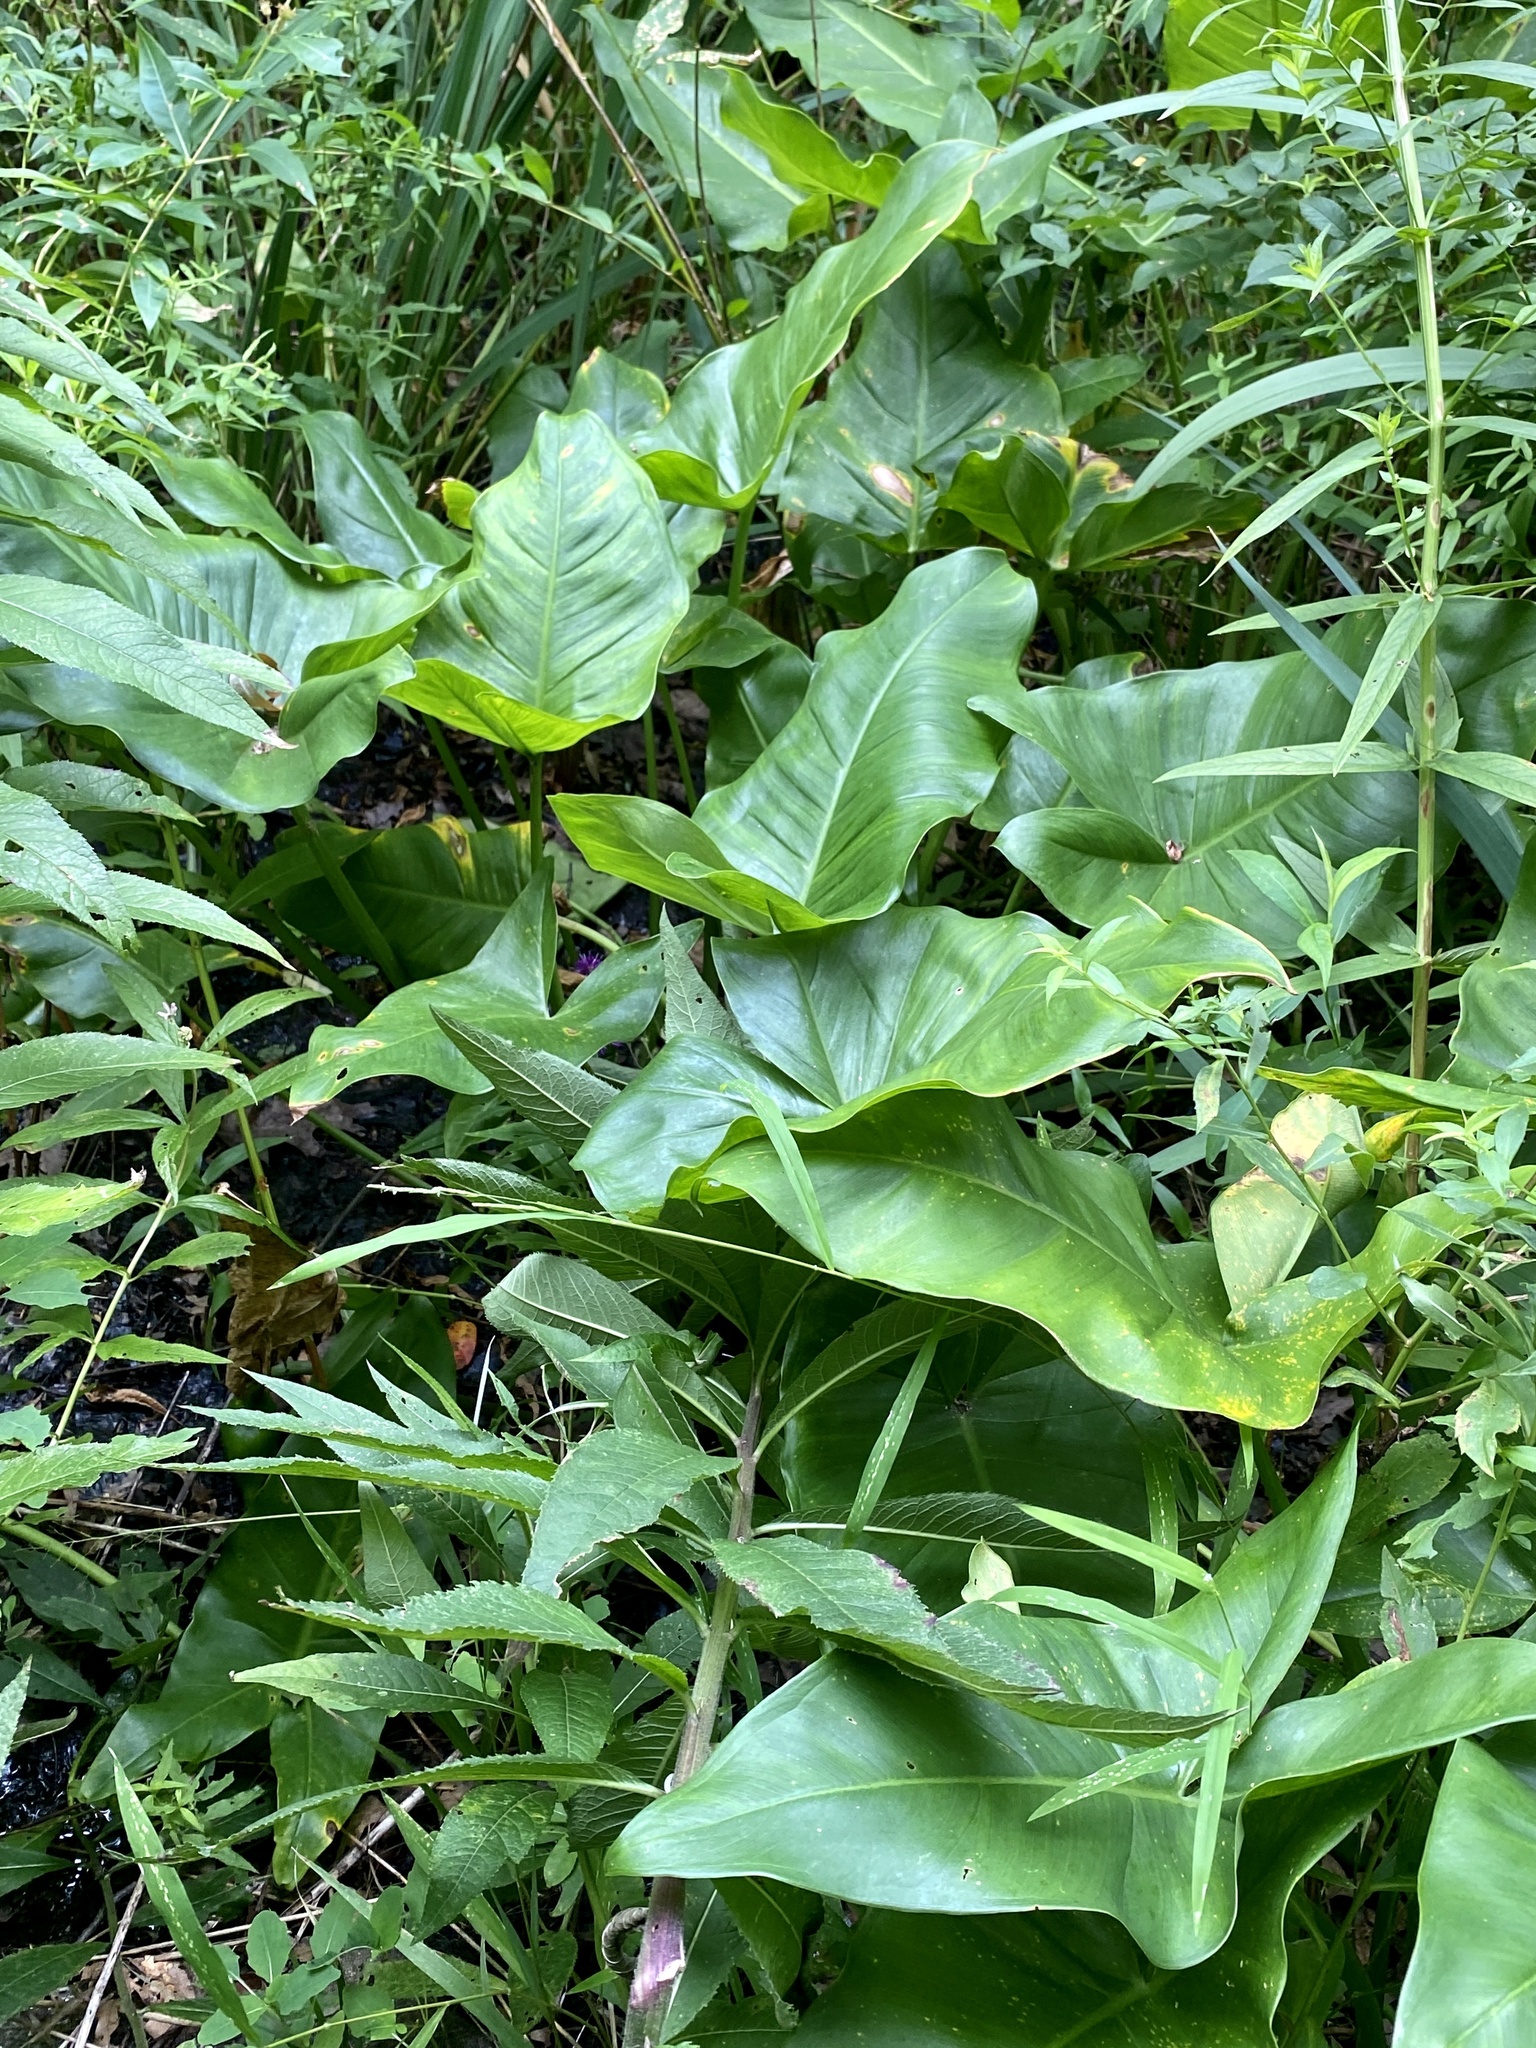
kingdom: Plantae
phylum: Tracheophyta
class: Liliopsida
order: Alismatales
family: Araceae
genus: Peltandra
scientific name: Peltandra virginica
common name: Arrow arum
